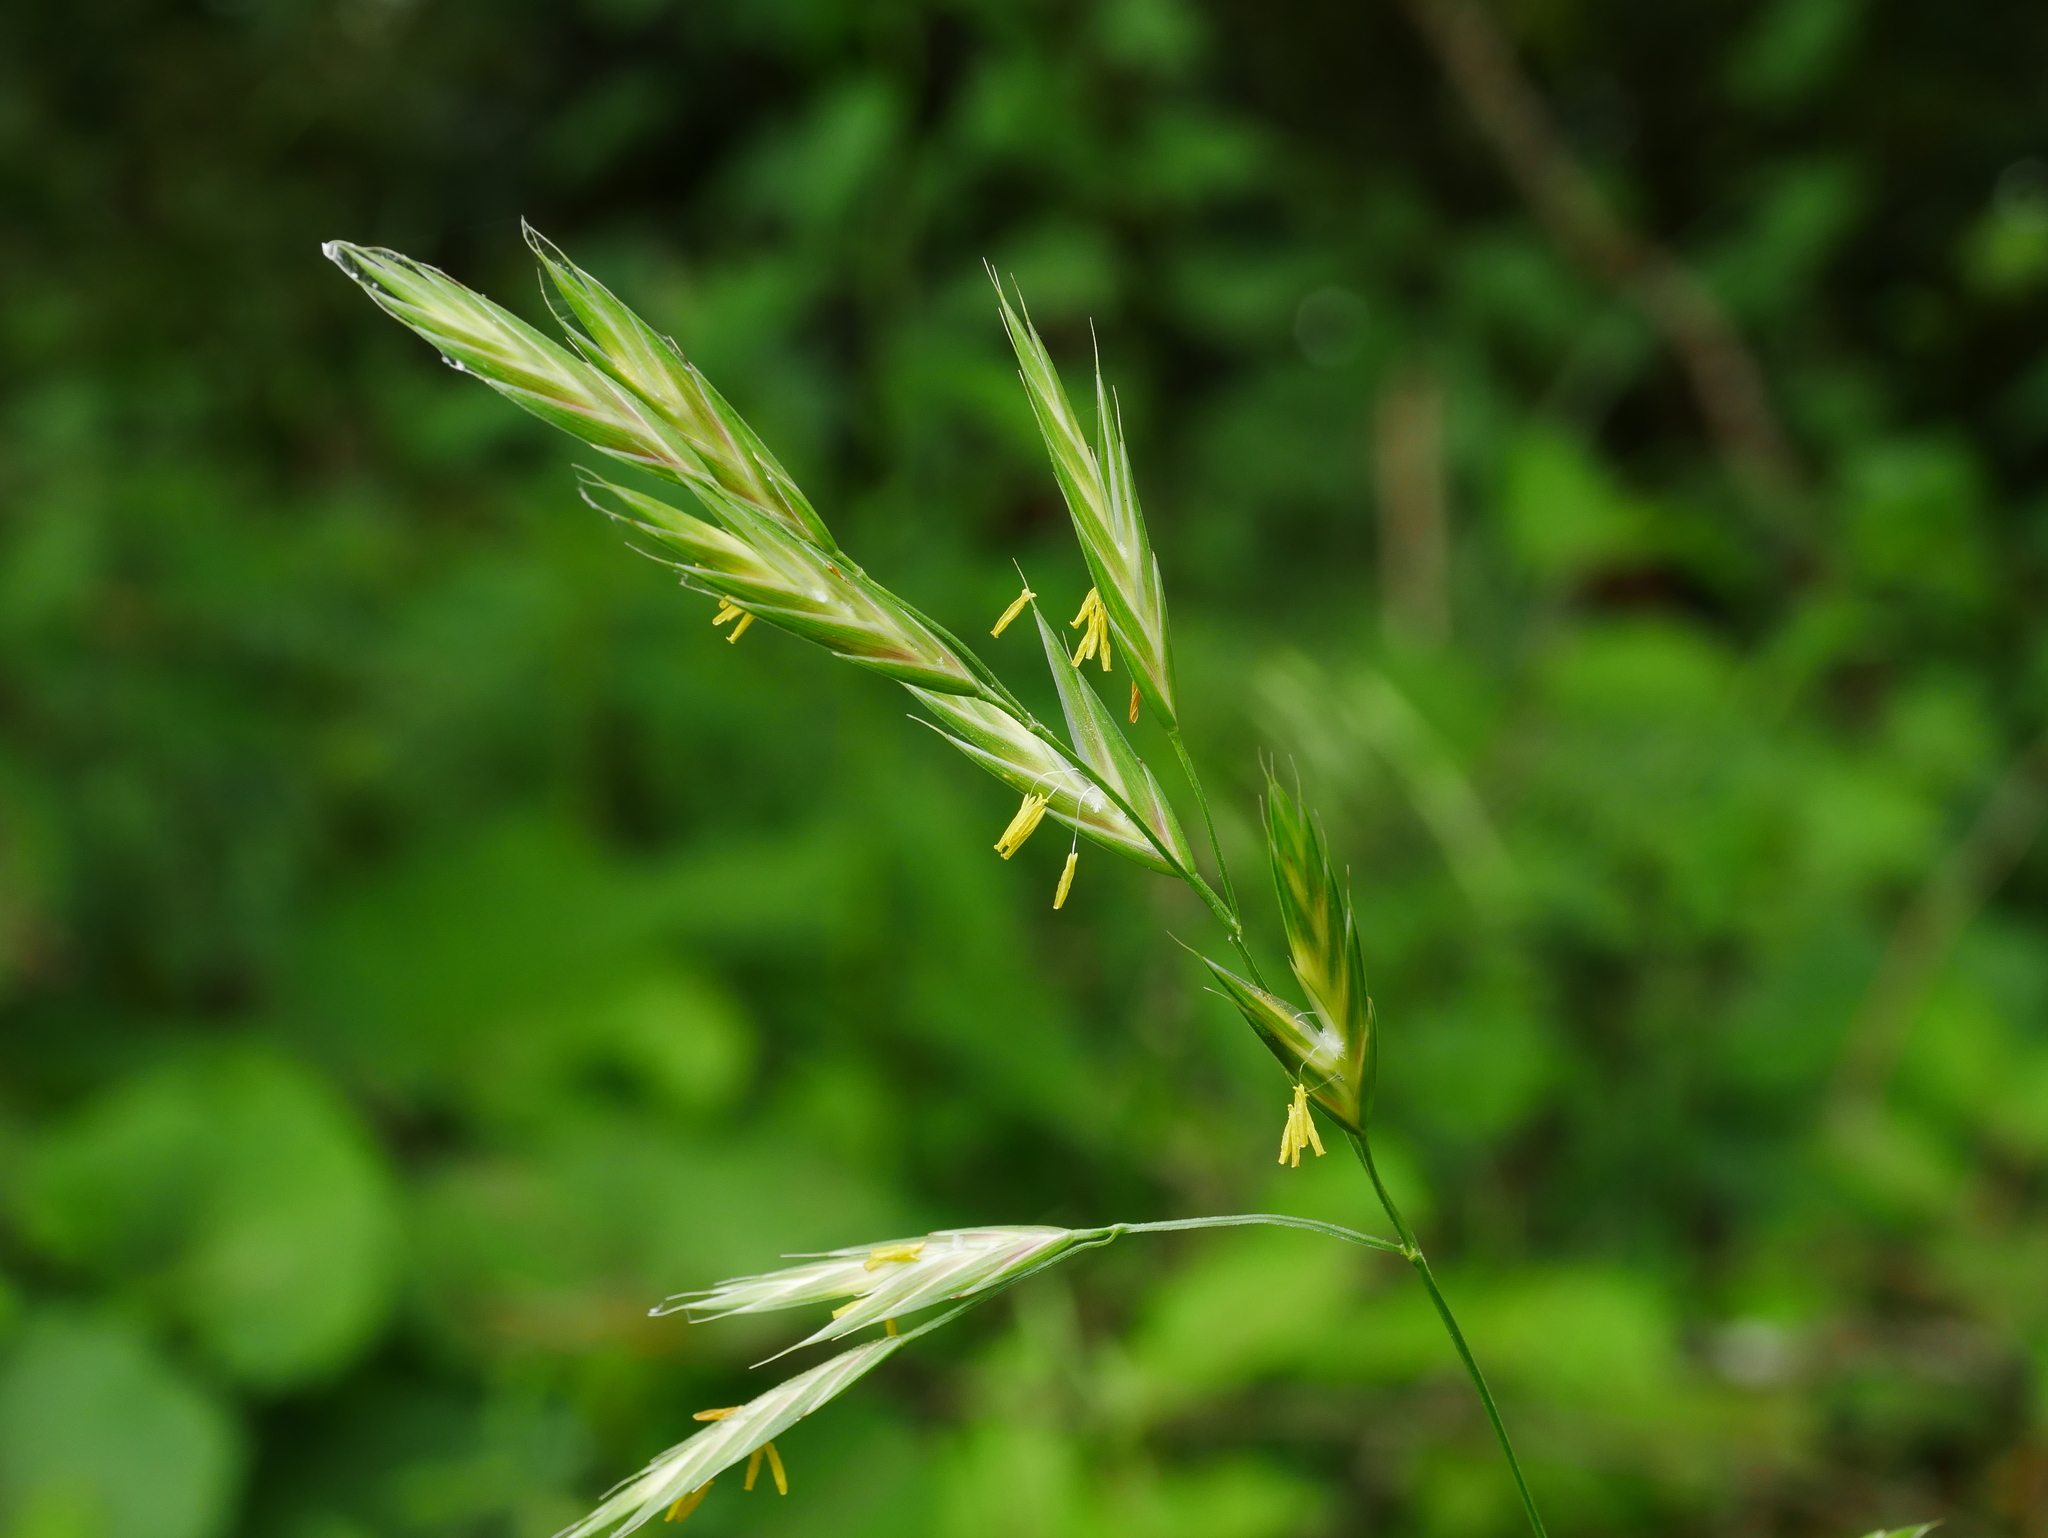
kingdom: Plantae
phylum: Tracheophyta
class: Liliopsida
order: Poales
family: Poaceae
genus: Bromus
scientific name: Bromus catharticus
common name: Rescuegrass
